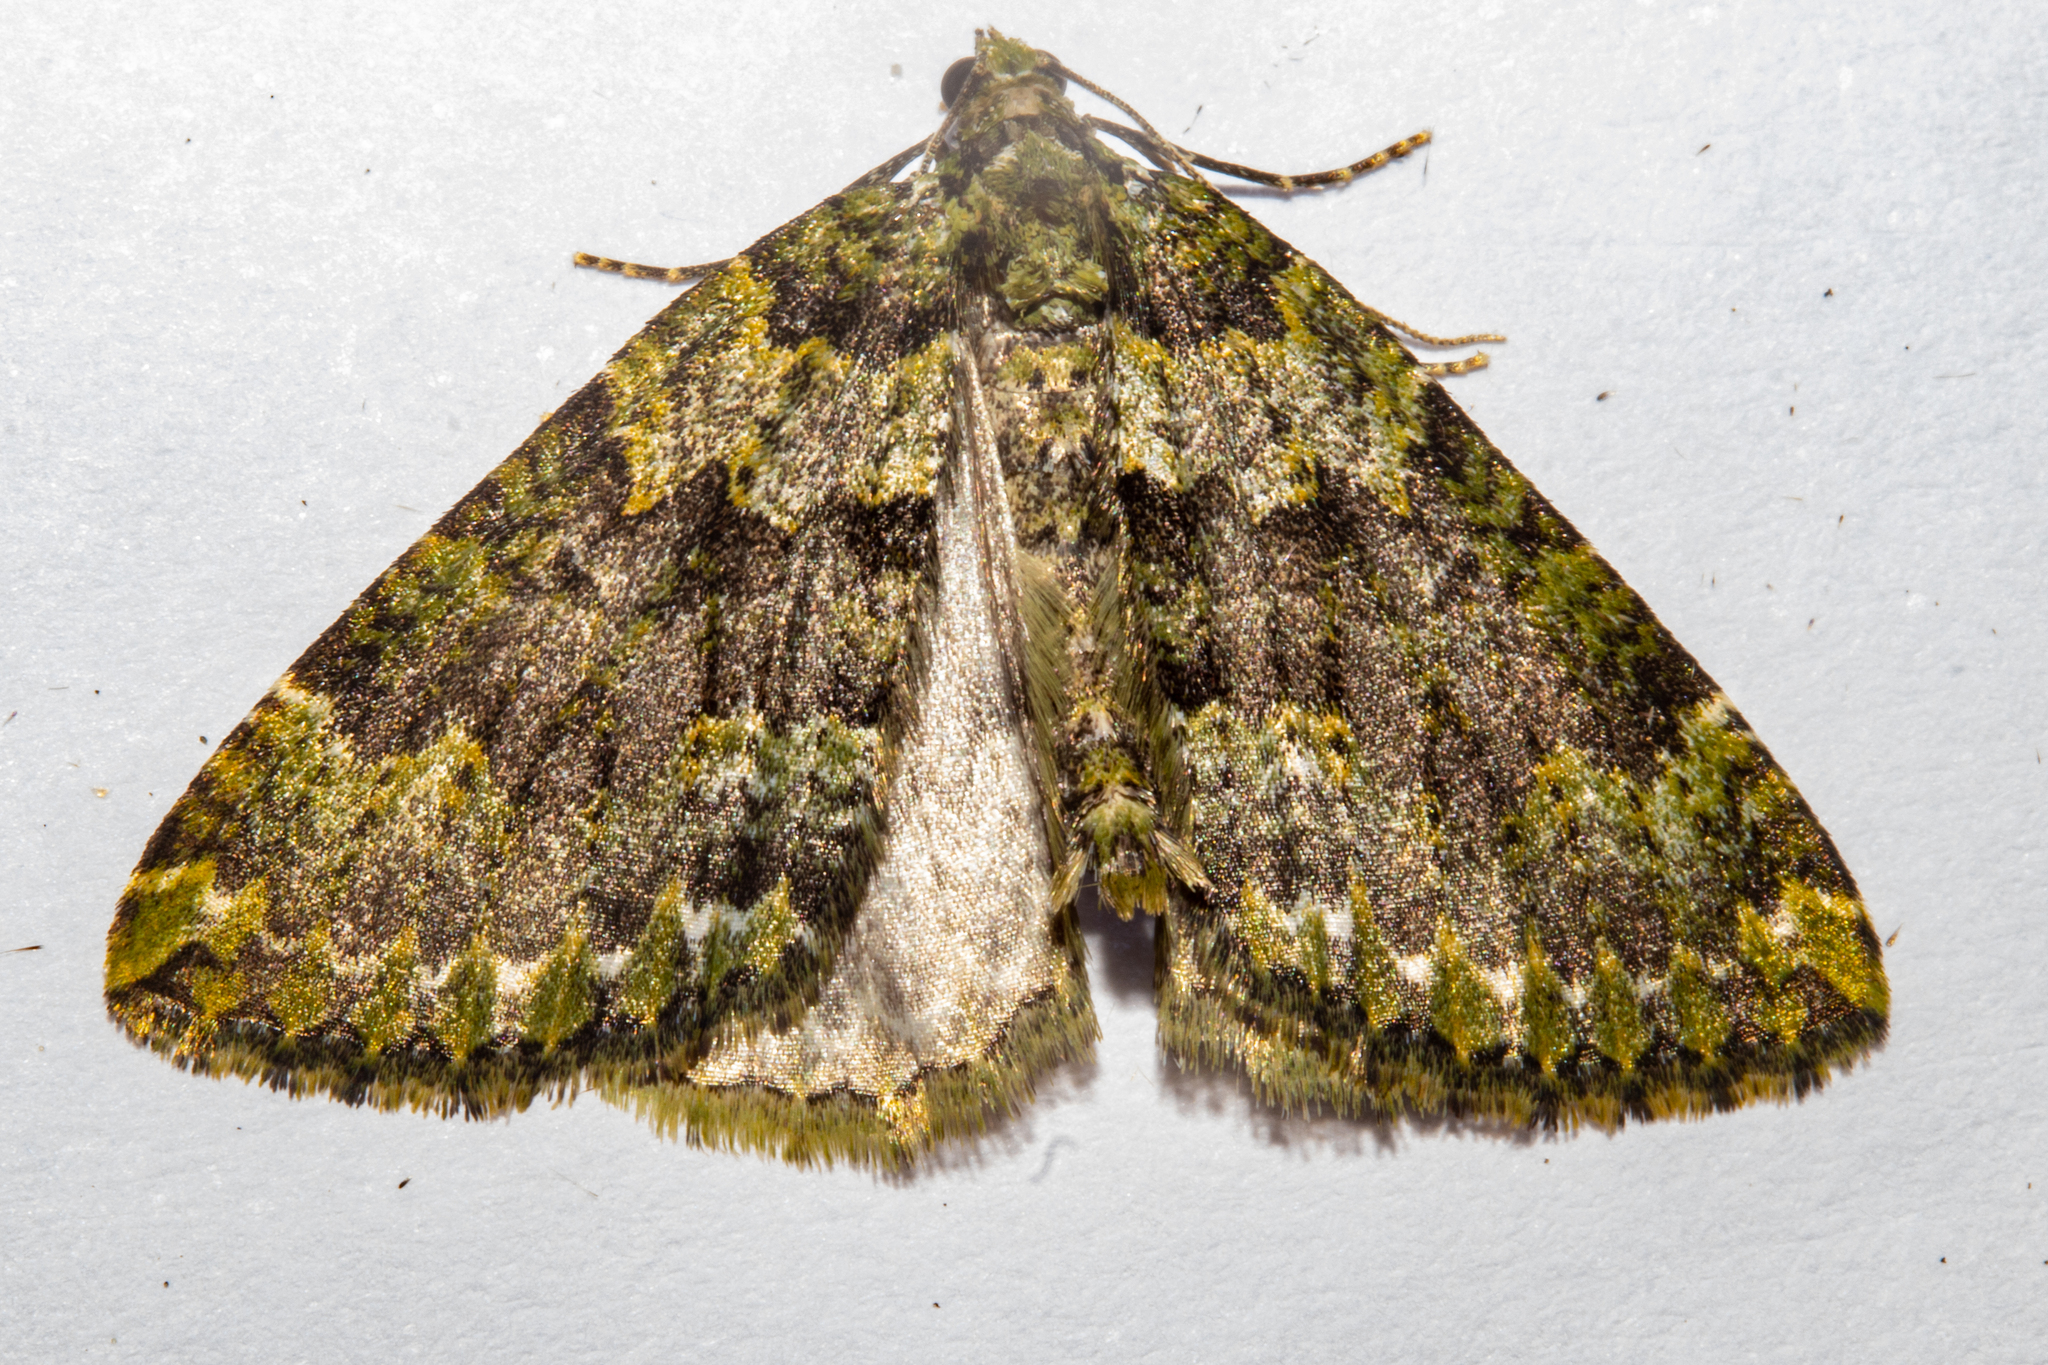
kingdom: Animalia
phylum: Arthropoda
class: Insecta
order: Lepidoptera
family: Geometridae
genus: Austrocidaria
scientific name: Austrocidaria callichlora
